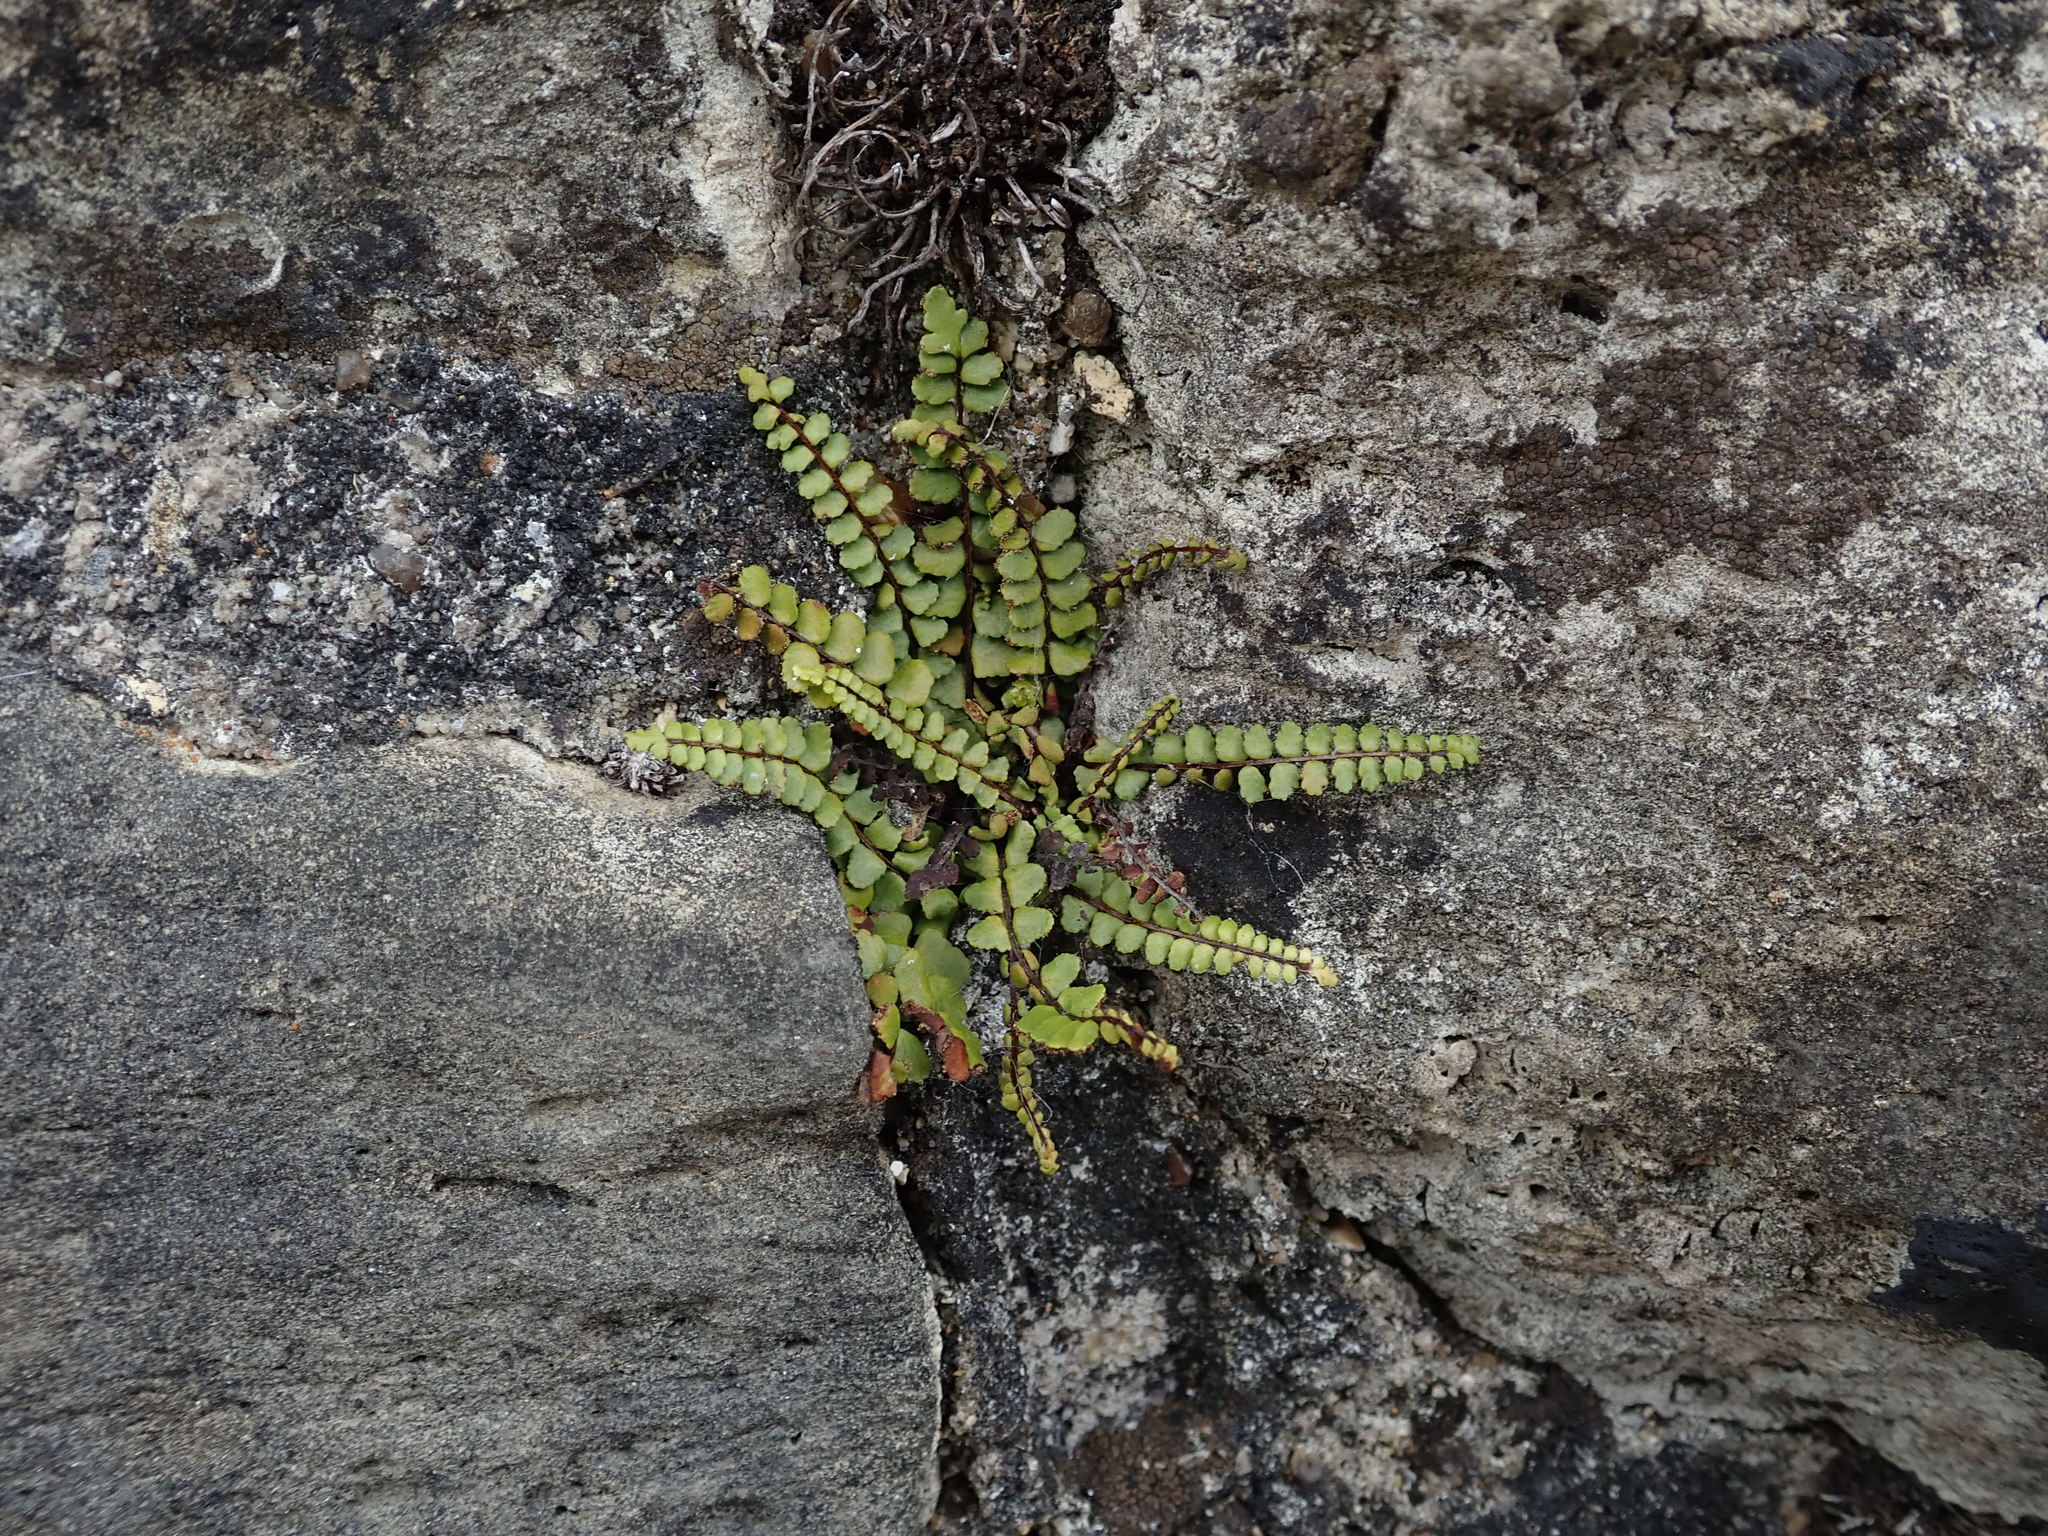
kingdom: Plantae
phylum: Tracheophyta
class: Polypodiopsida
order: Polypodiales
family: Aspleniaceae
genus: Asplenium
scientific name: Asplenium trichomanes
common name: Maidenhair spleenwort
